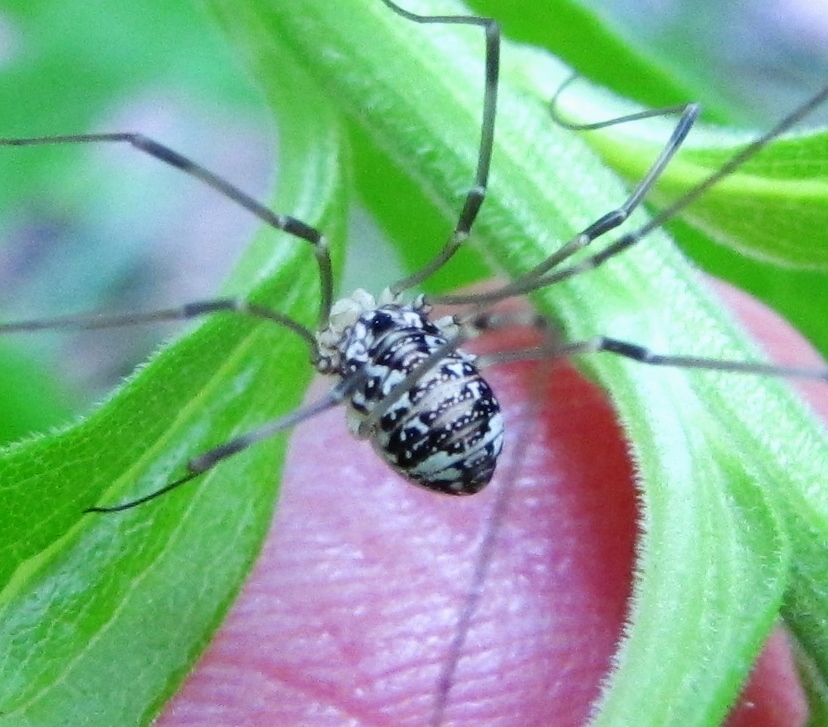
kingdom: Animalia
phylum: Arthropoda
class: Arachnida
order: Opiliones
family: Sclerosomatidae
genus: Leiobunum
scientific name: Leiobunum vittatum
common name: Eastern harvestman
